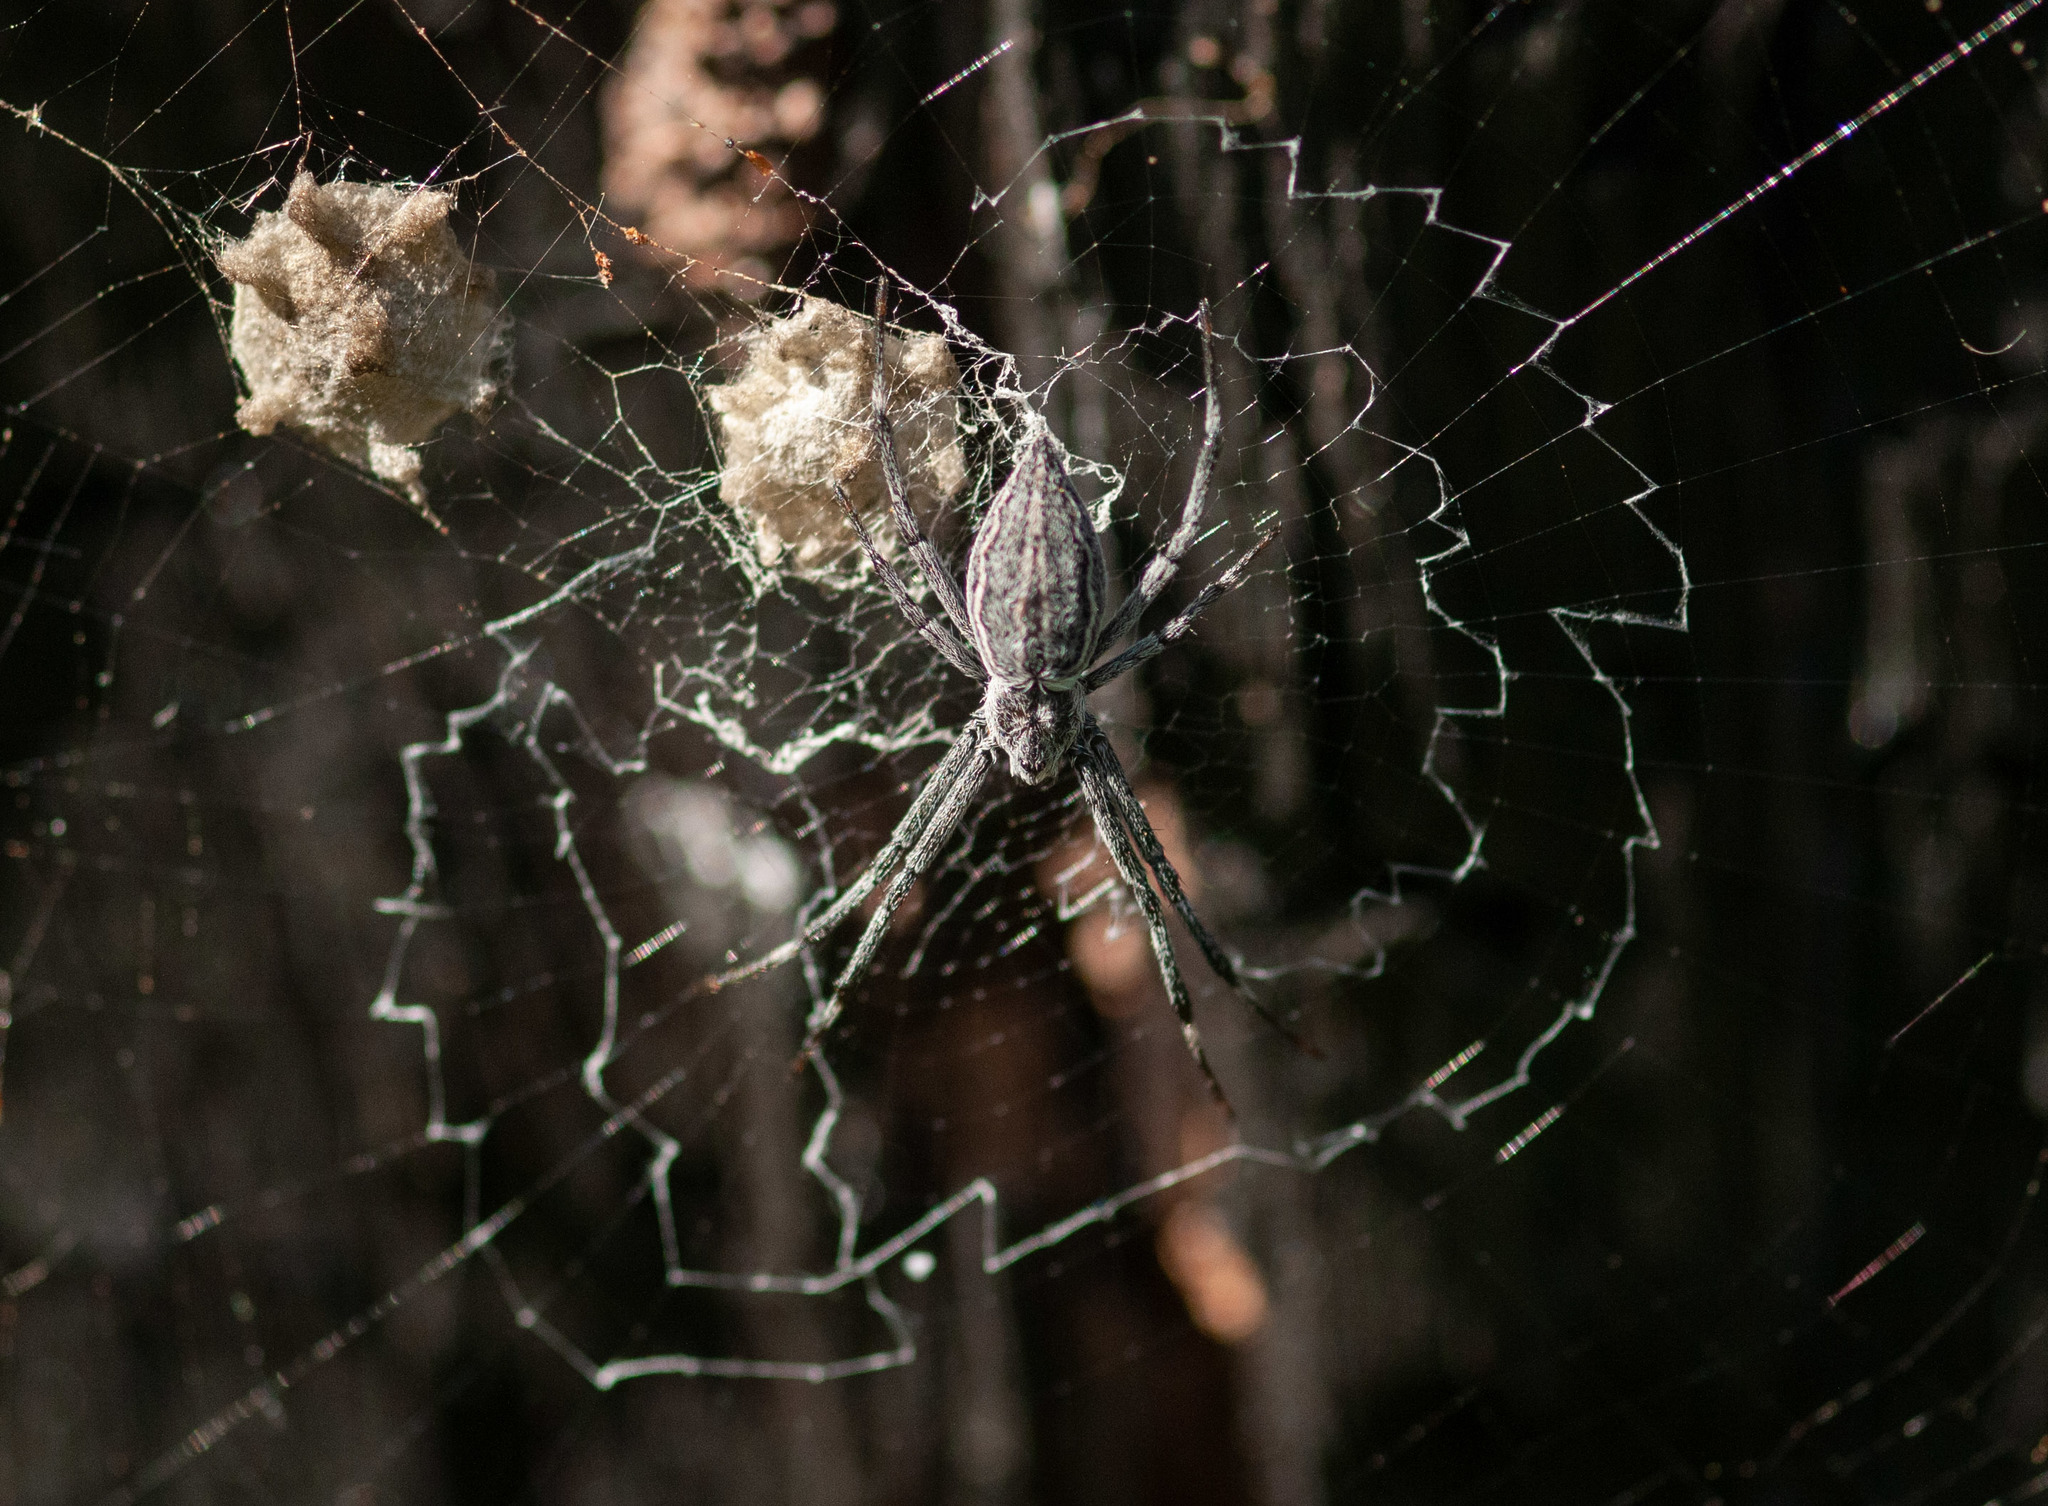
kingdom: Animalia
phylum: Arthropoda
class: Arachnida
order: Araneae
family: Araneidae
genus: Argiope
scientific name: Argiope ocyaloides
